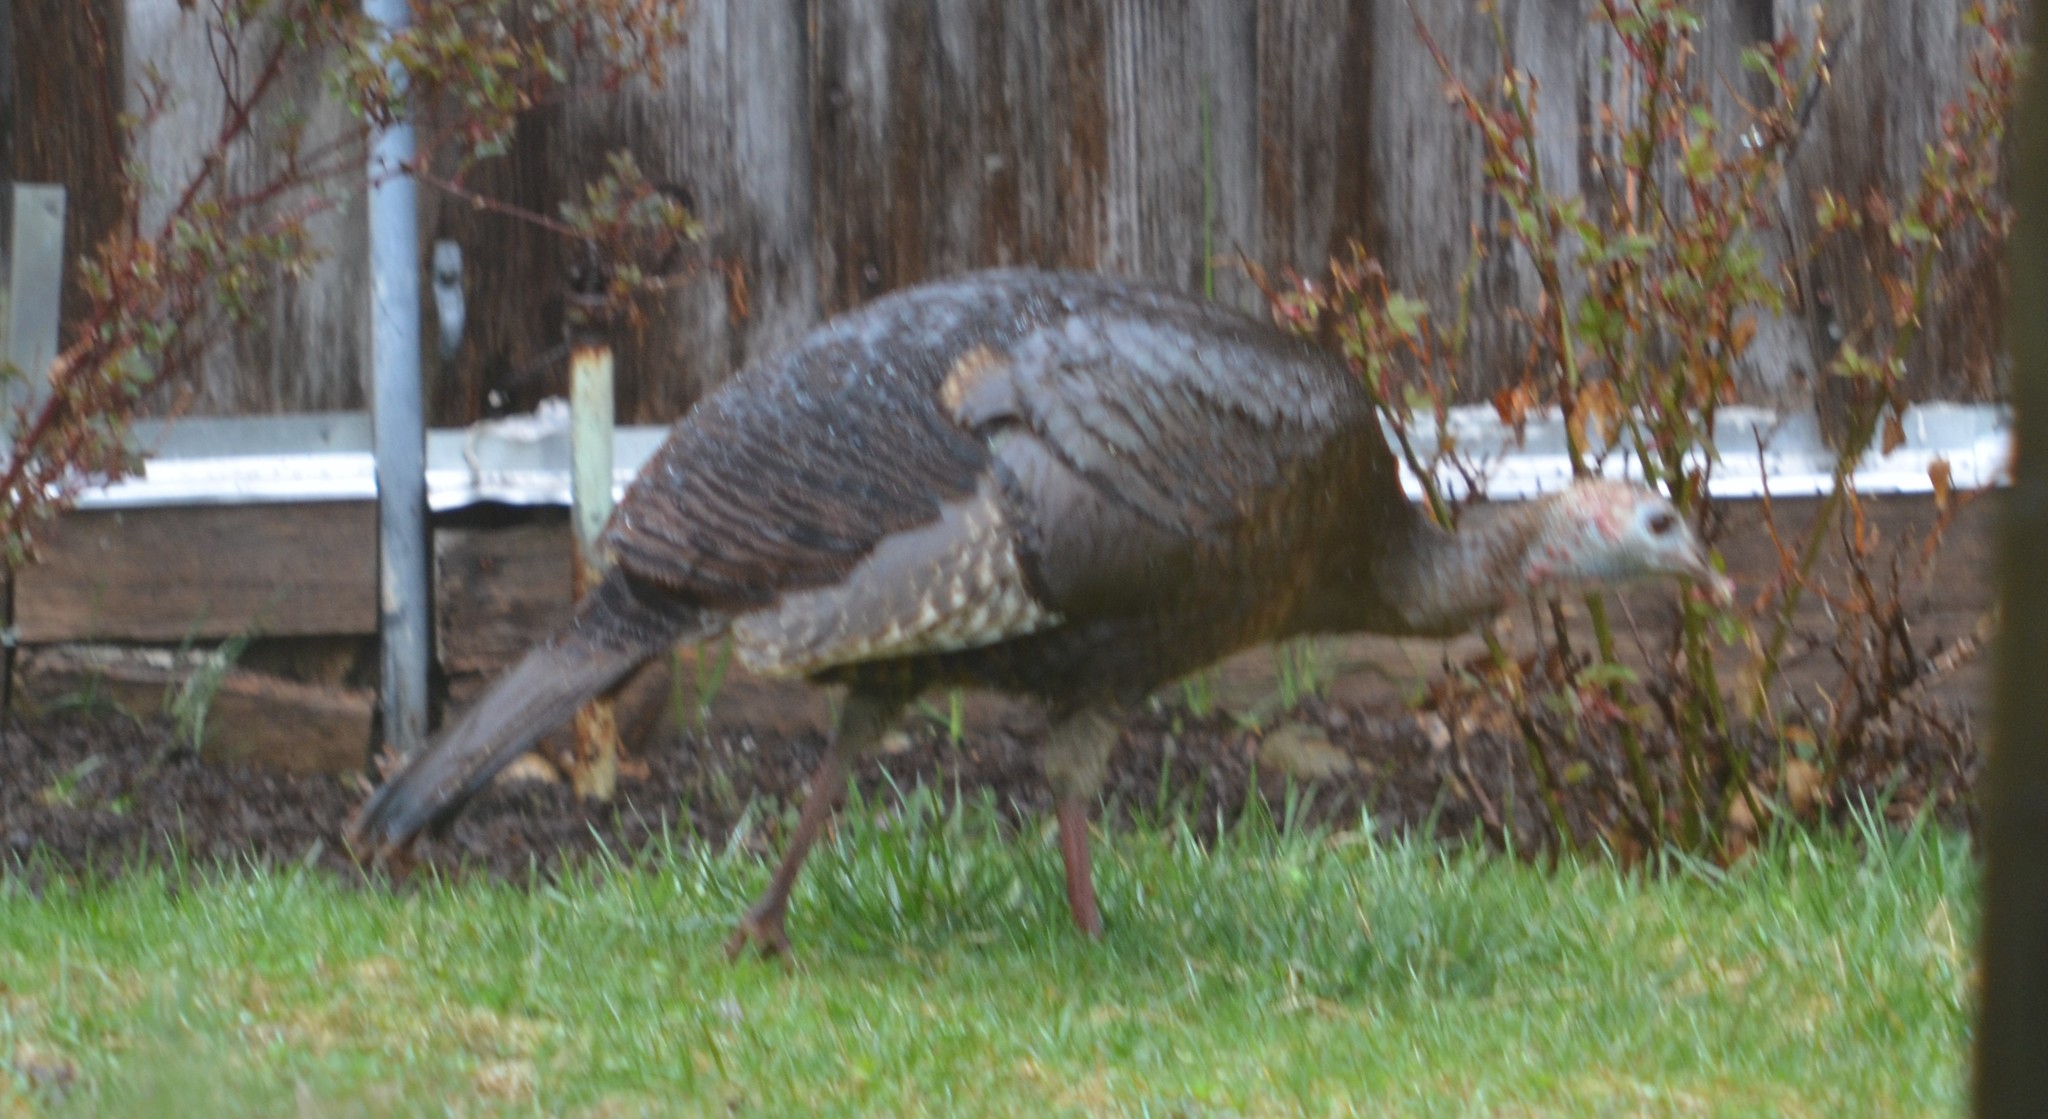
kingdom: Animalia
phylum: Chordata
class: Aves
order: Galliformes
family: Phasianidae
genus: Meleagris
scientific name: Meleagris gallopavo
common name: Wild turkey
